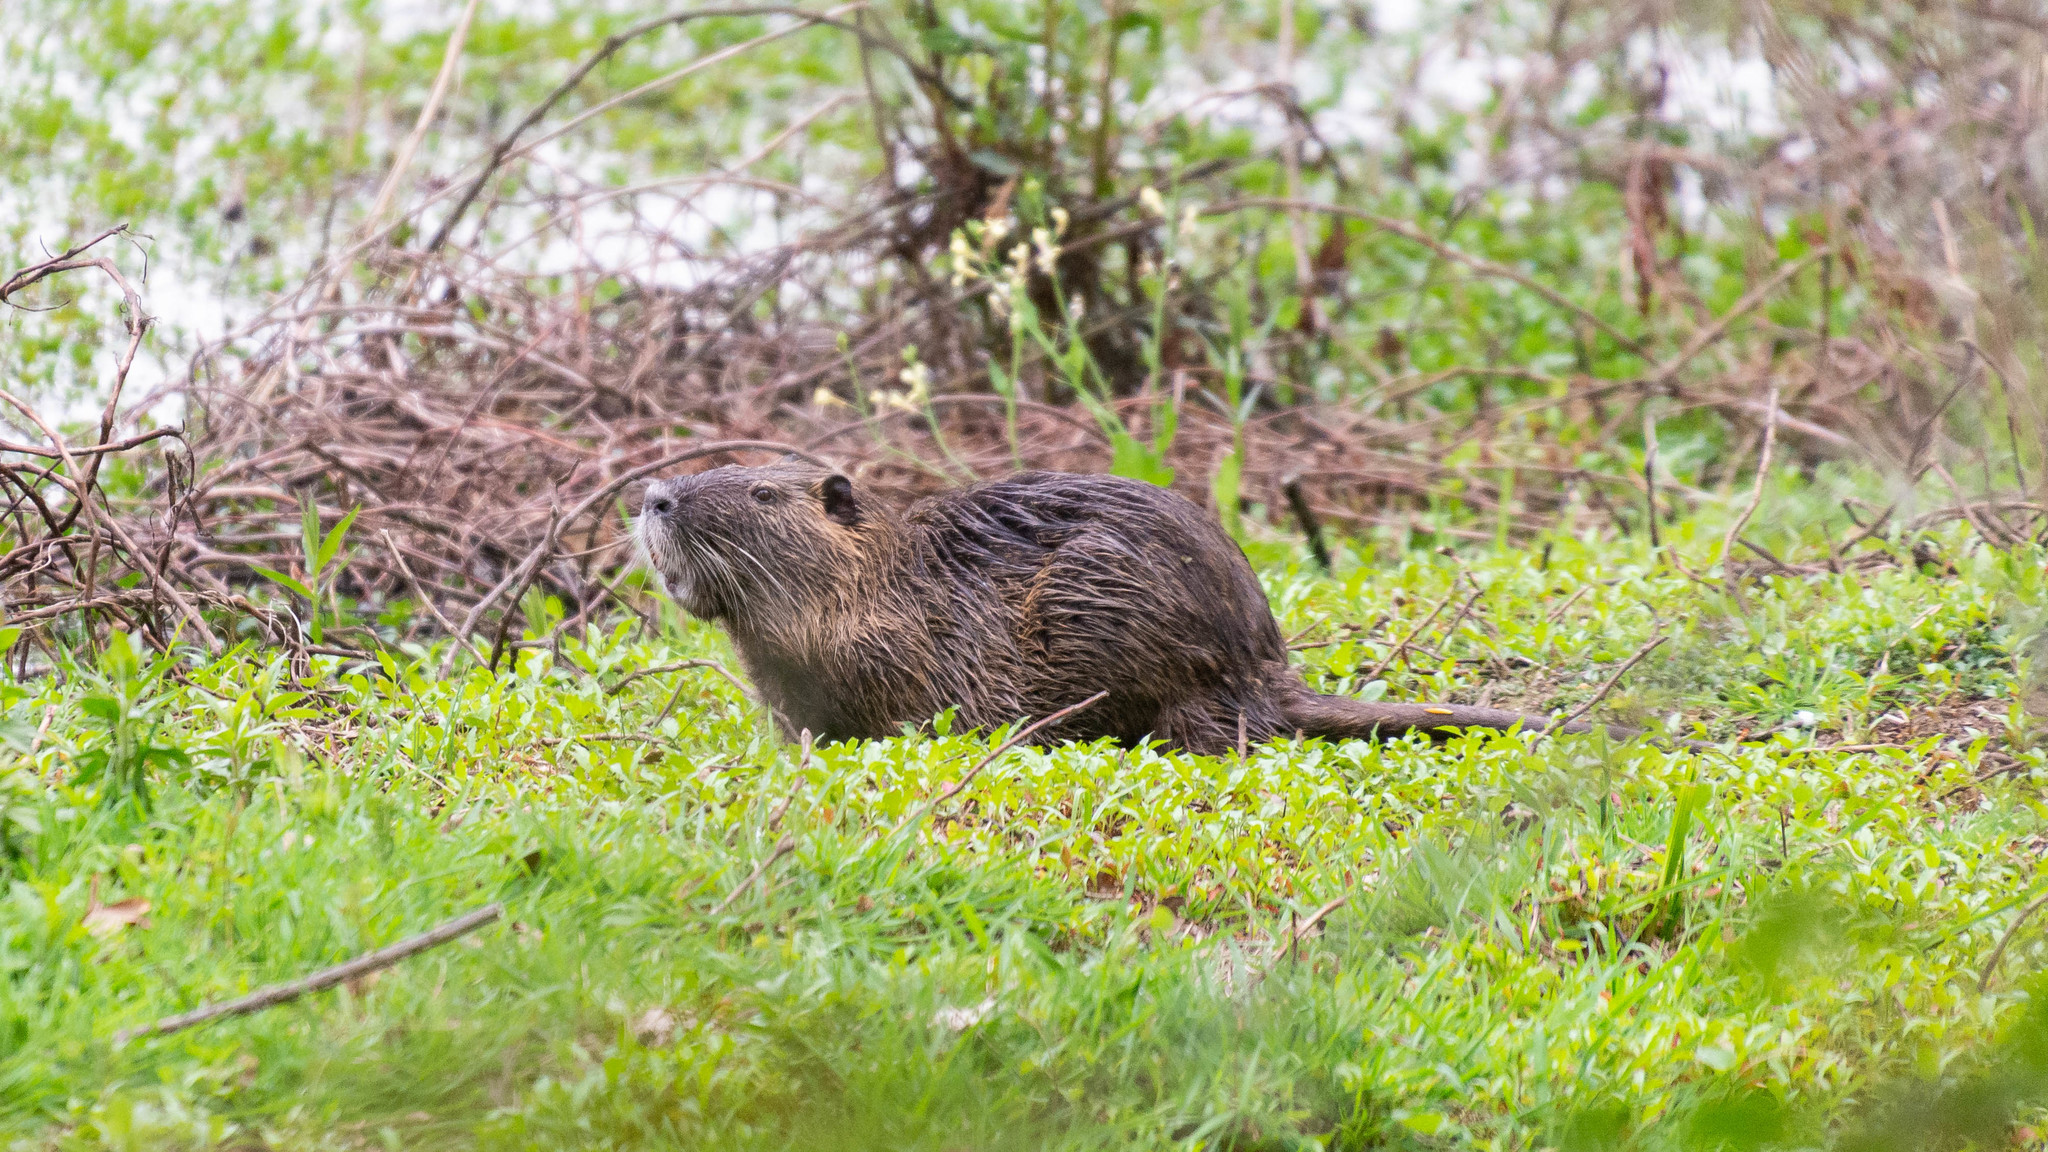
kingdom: Animalia
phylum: Chordata
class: Mammalia
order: Rodentia
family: Myocastoridae
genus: Myocastor
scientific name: Myocastor coypus
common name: Coypu
